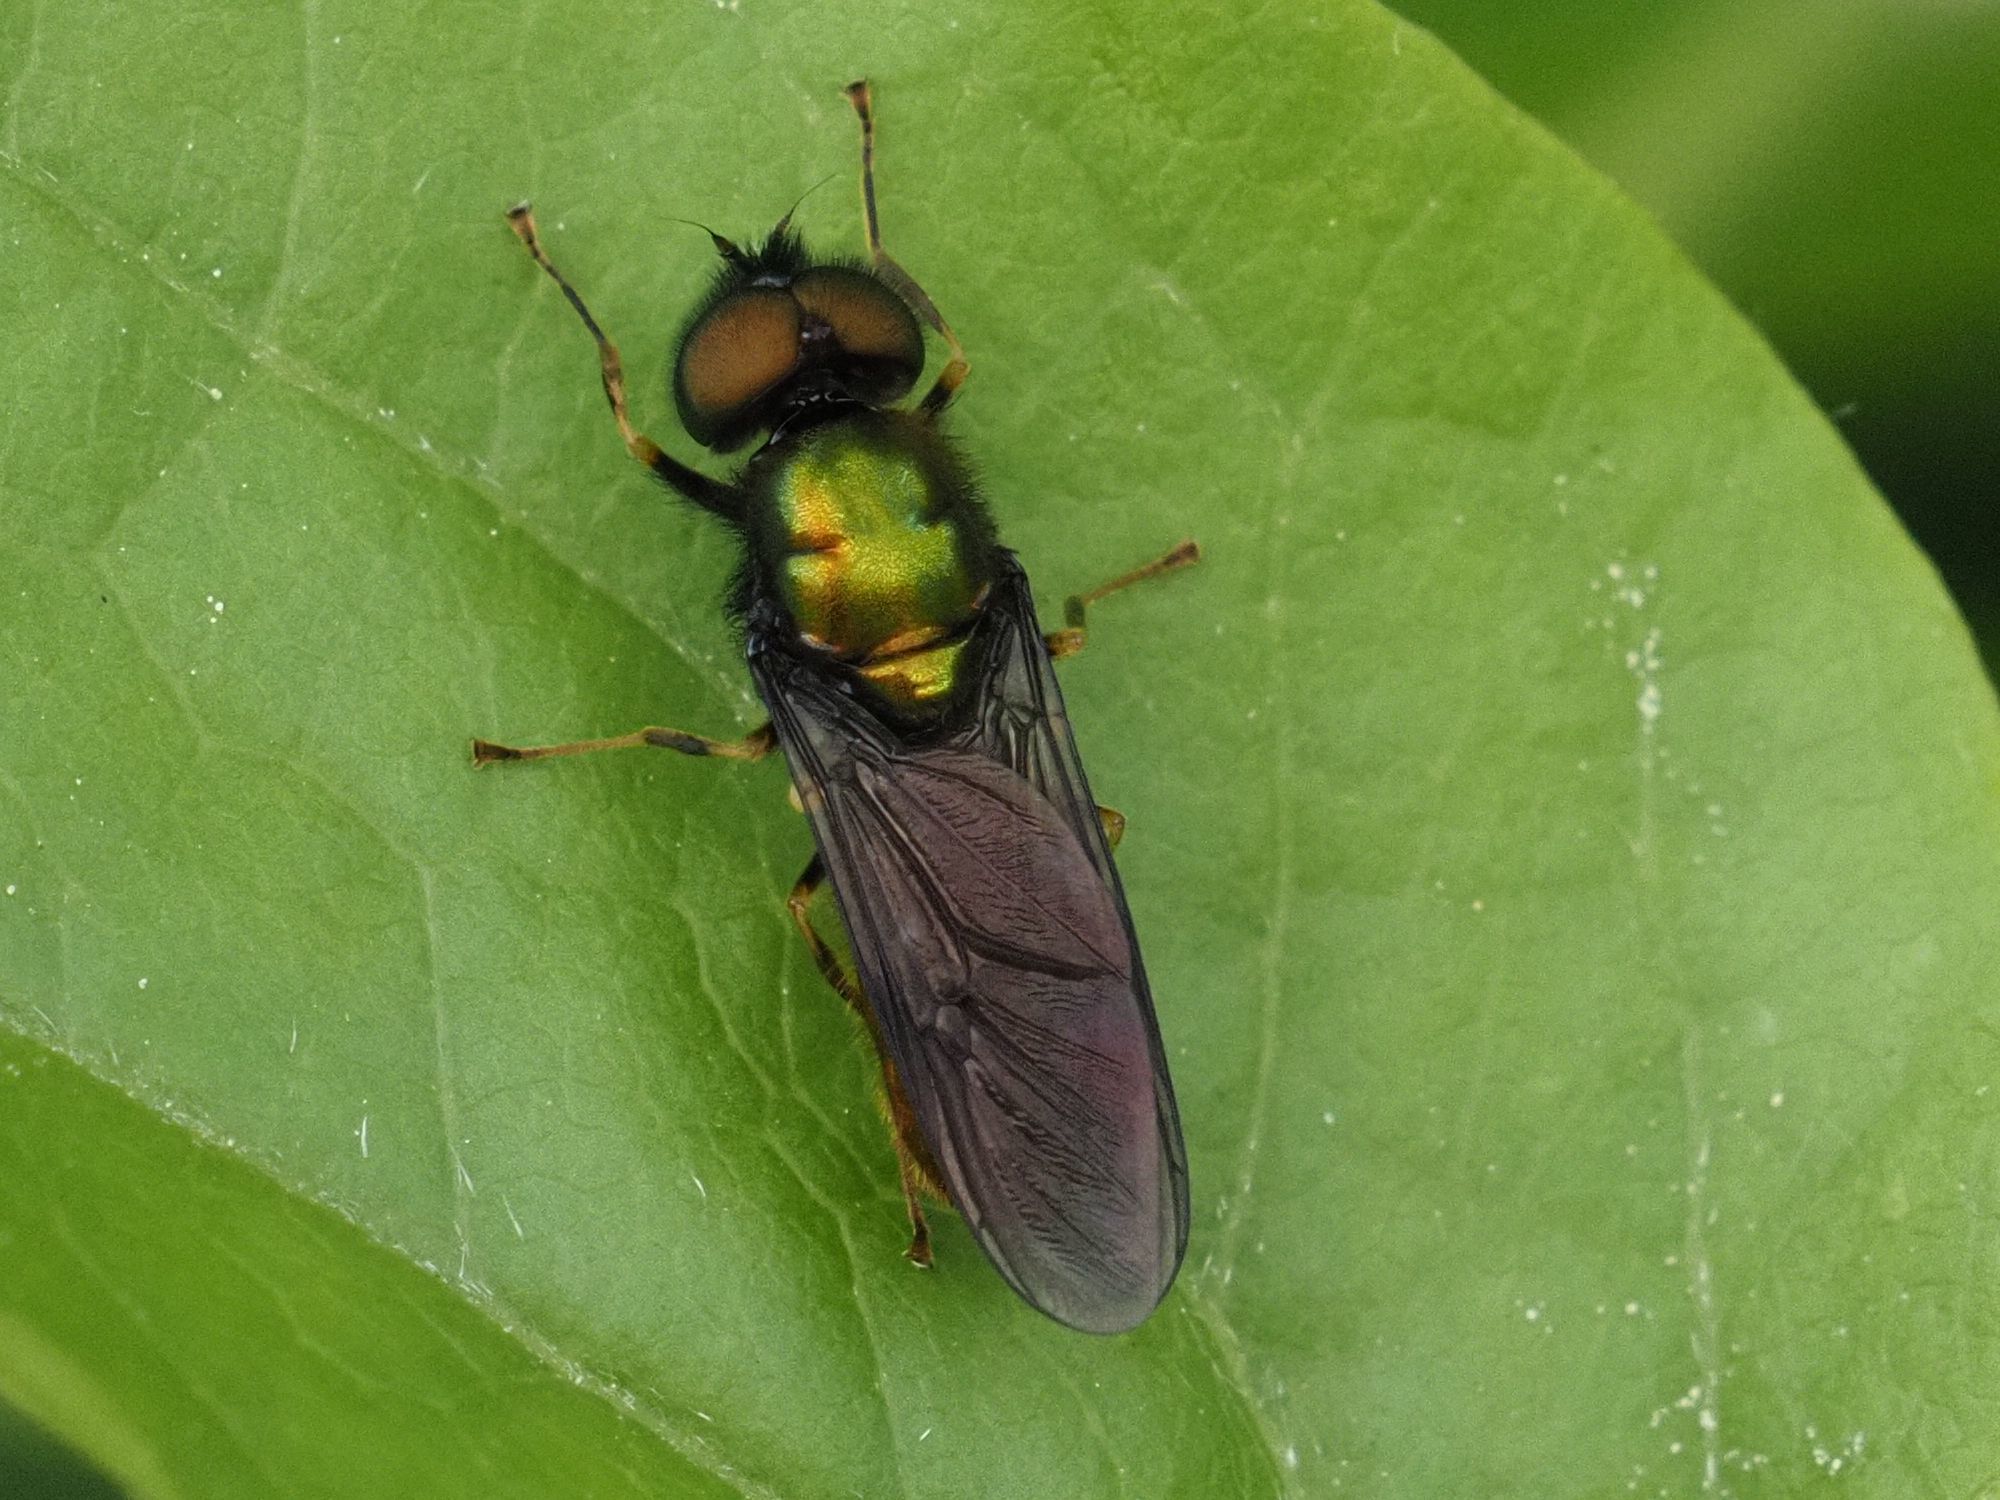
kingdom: Animalia
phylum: Arthropoda
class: Insecta
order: Diptera
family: Stratiomyidae
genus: Chloromyia
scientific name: Chloromyia speciosa
